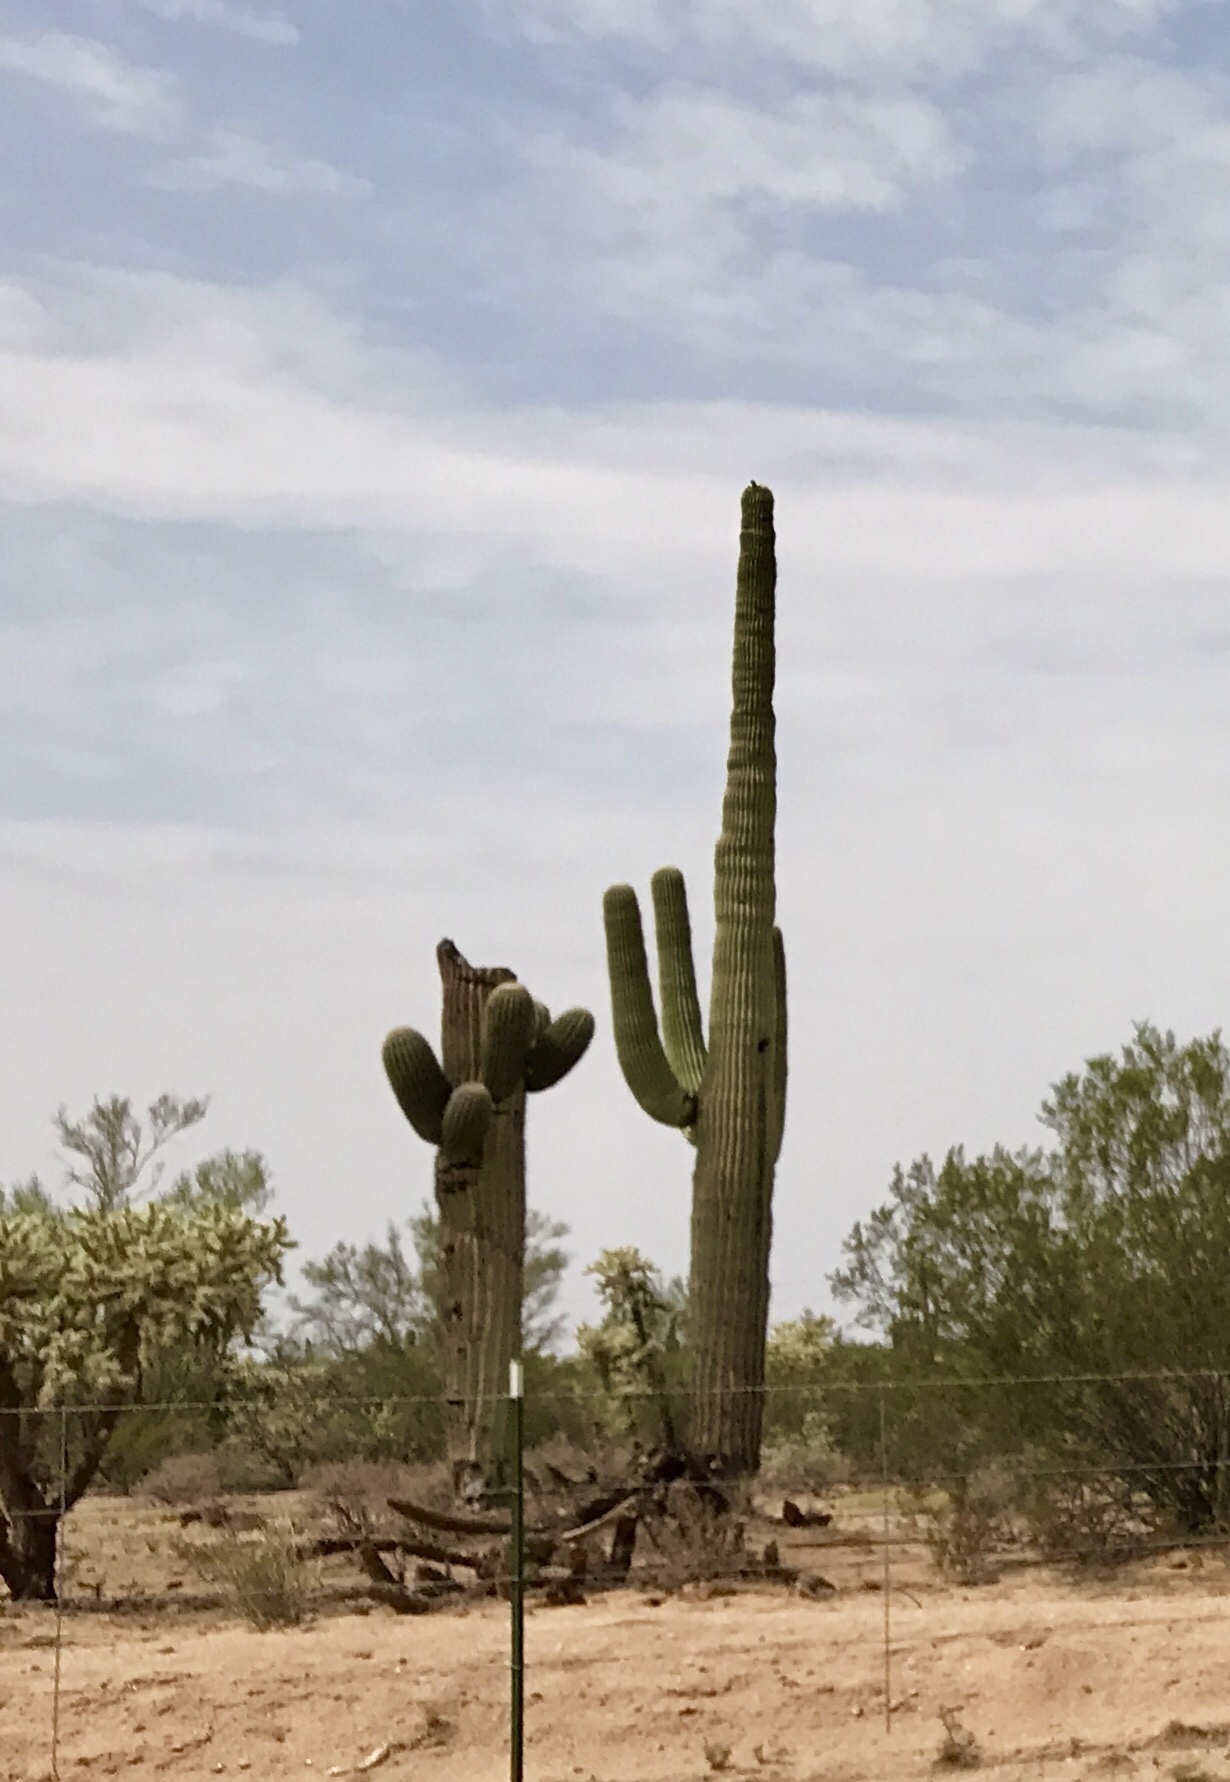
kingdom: Plantae
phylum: Tracheophyta
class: Magnoliopsida
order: Caryophyllales
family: Cactaceae
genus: Carnegiea
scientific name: Carnegiea gigantea
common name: Saguaro
